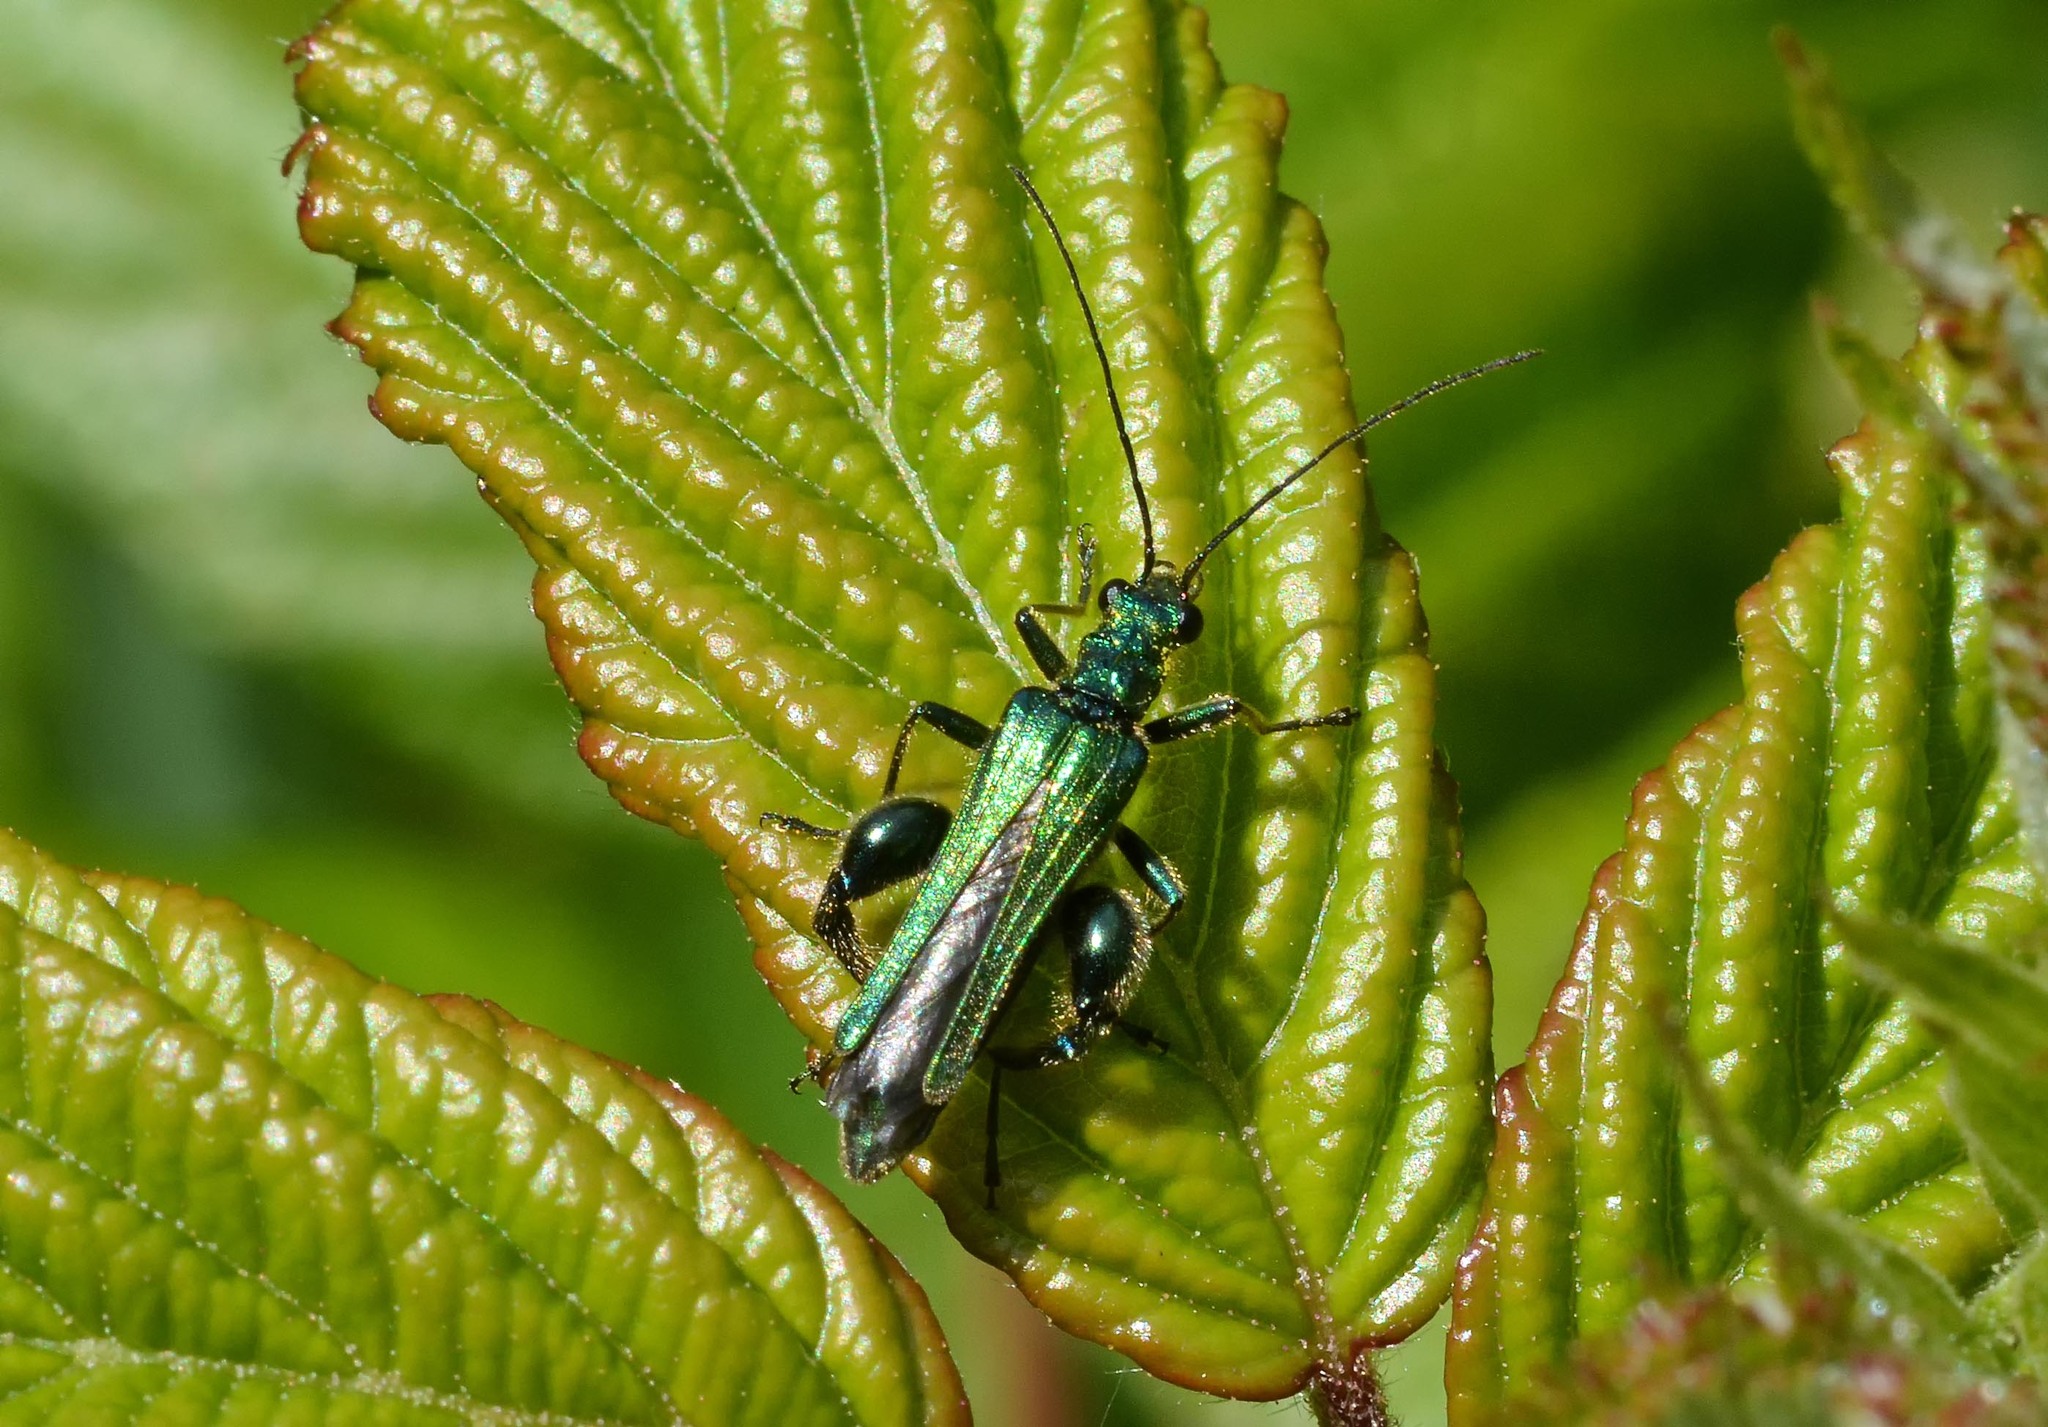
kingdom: Animalia
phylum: Arthropoda
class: Insecta
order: Coleoptera
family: Oedemeridae
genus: Oedemera
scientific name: Oedemera nobilis
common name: Swollen-thighed beetle
